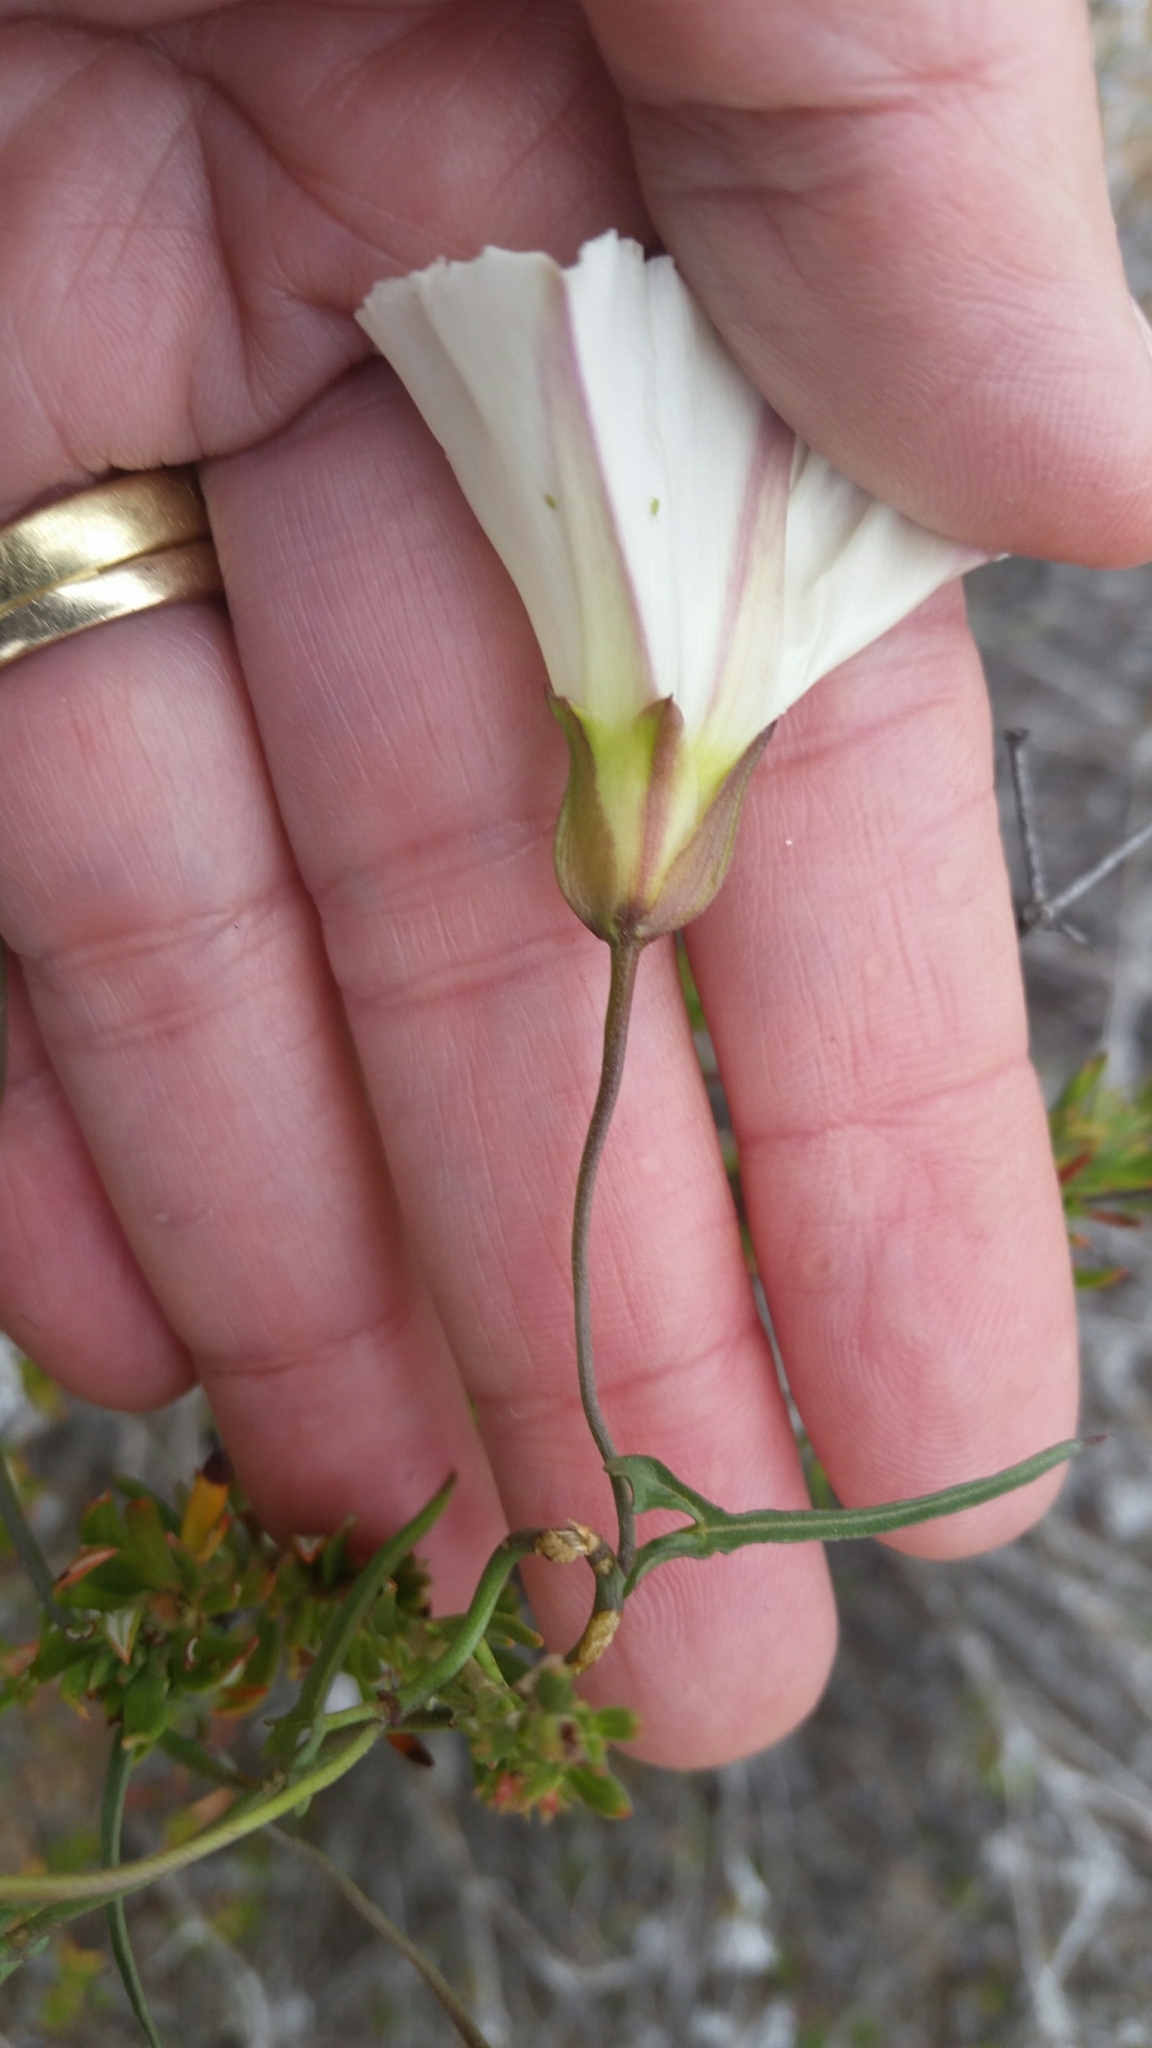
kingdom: Plantae
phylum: Tracheophyta
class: Magnoliopsida
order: Solanales
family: Convolvulaceae
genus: Calystegia
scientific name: Calystegia macrostegia
